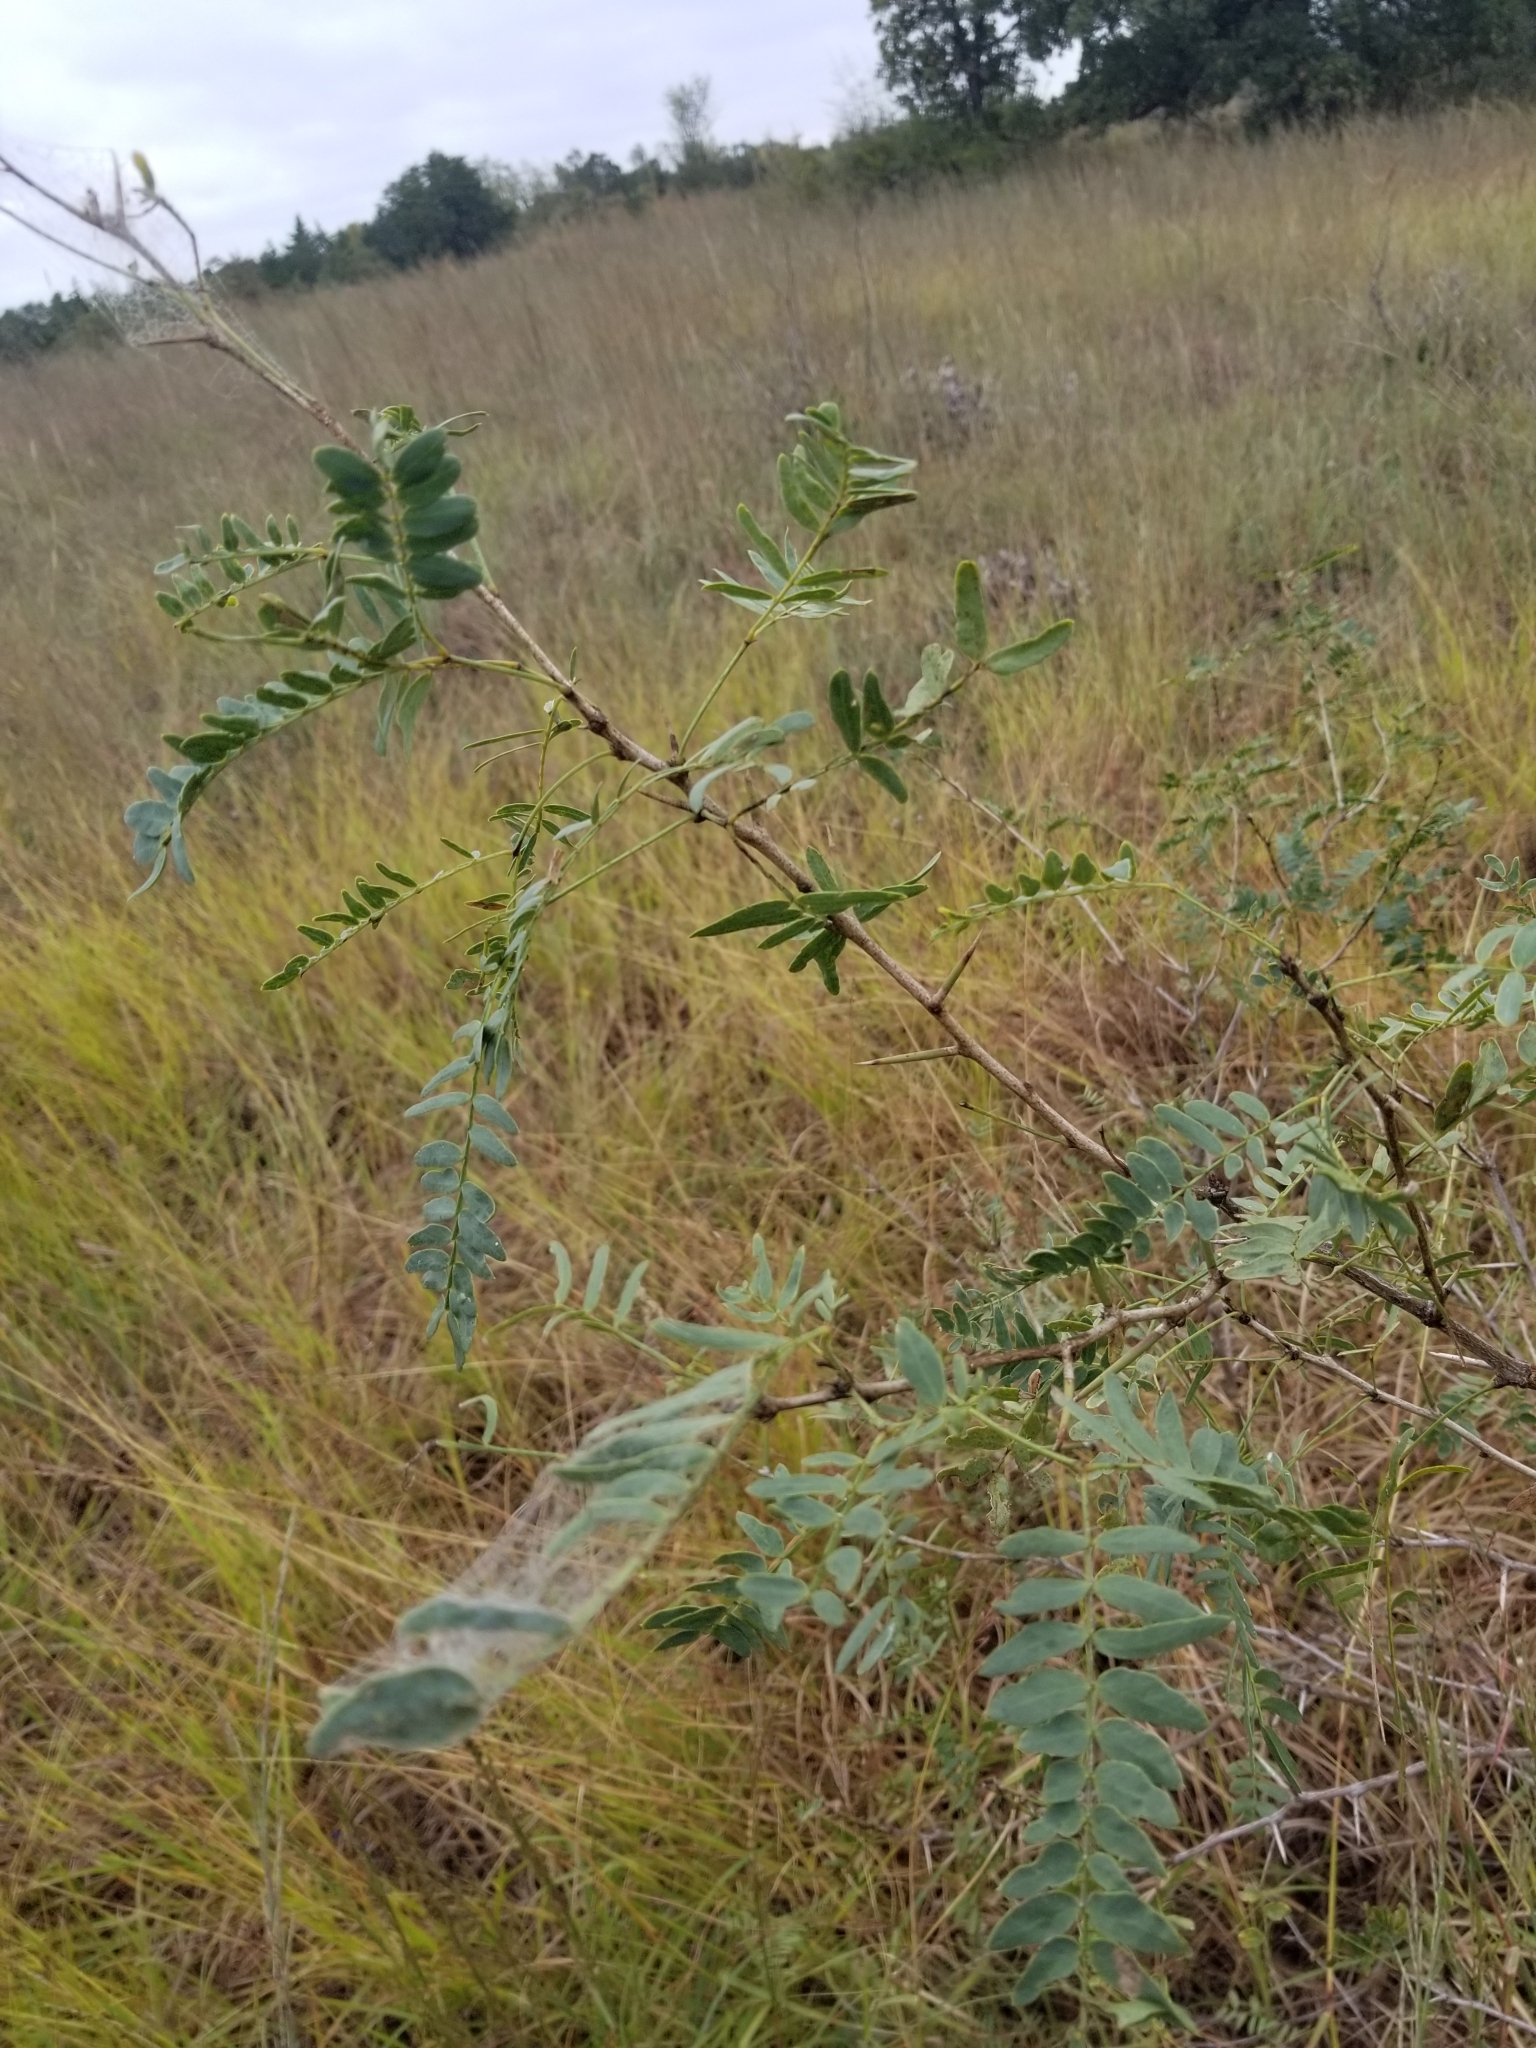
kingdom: Plantae
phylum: Tracheophyta
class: Magnoliopsida
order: Fabales
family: Fabaceae
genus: Prosopis
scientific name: Prosopis glandulosa
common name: Honey mesquite
